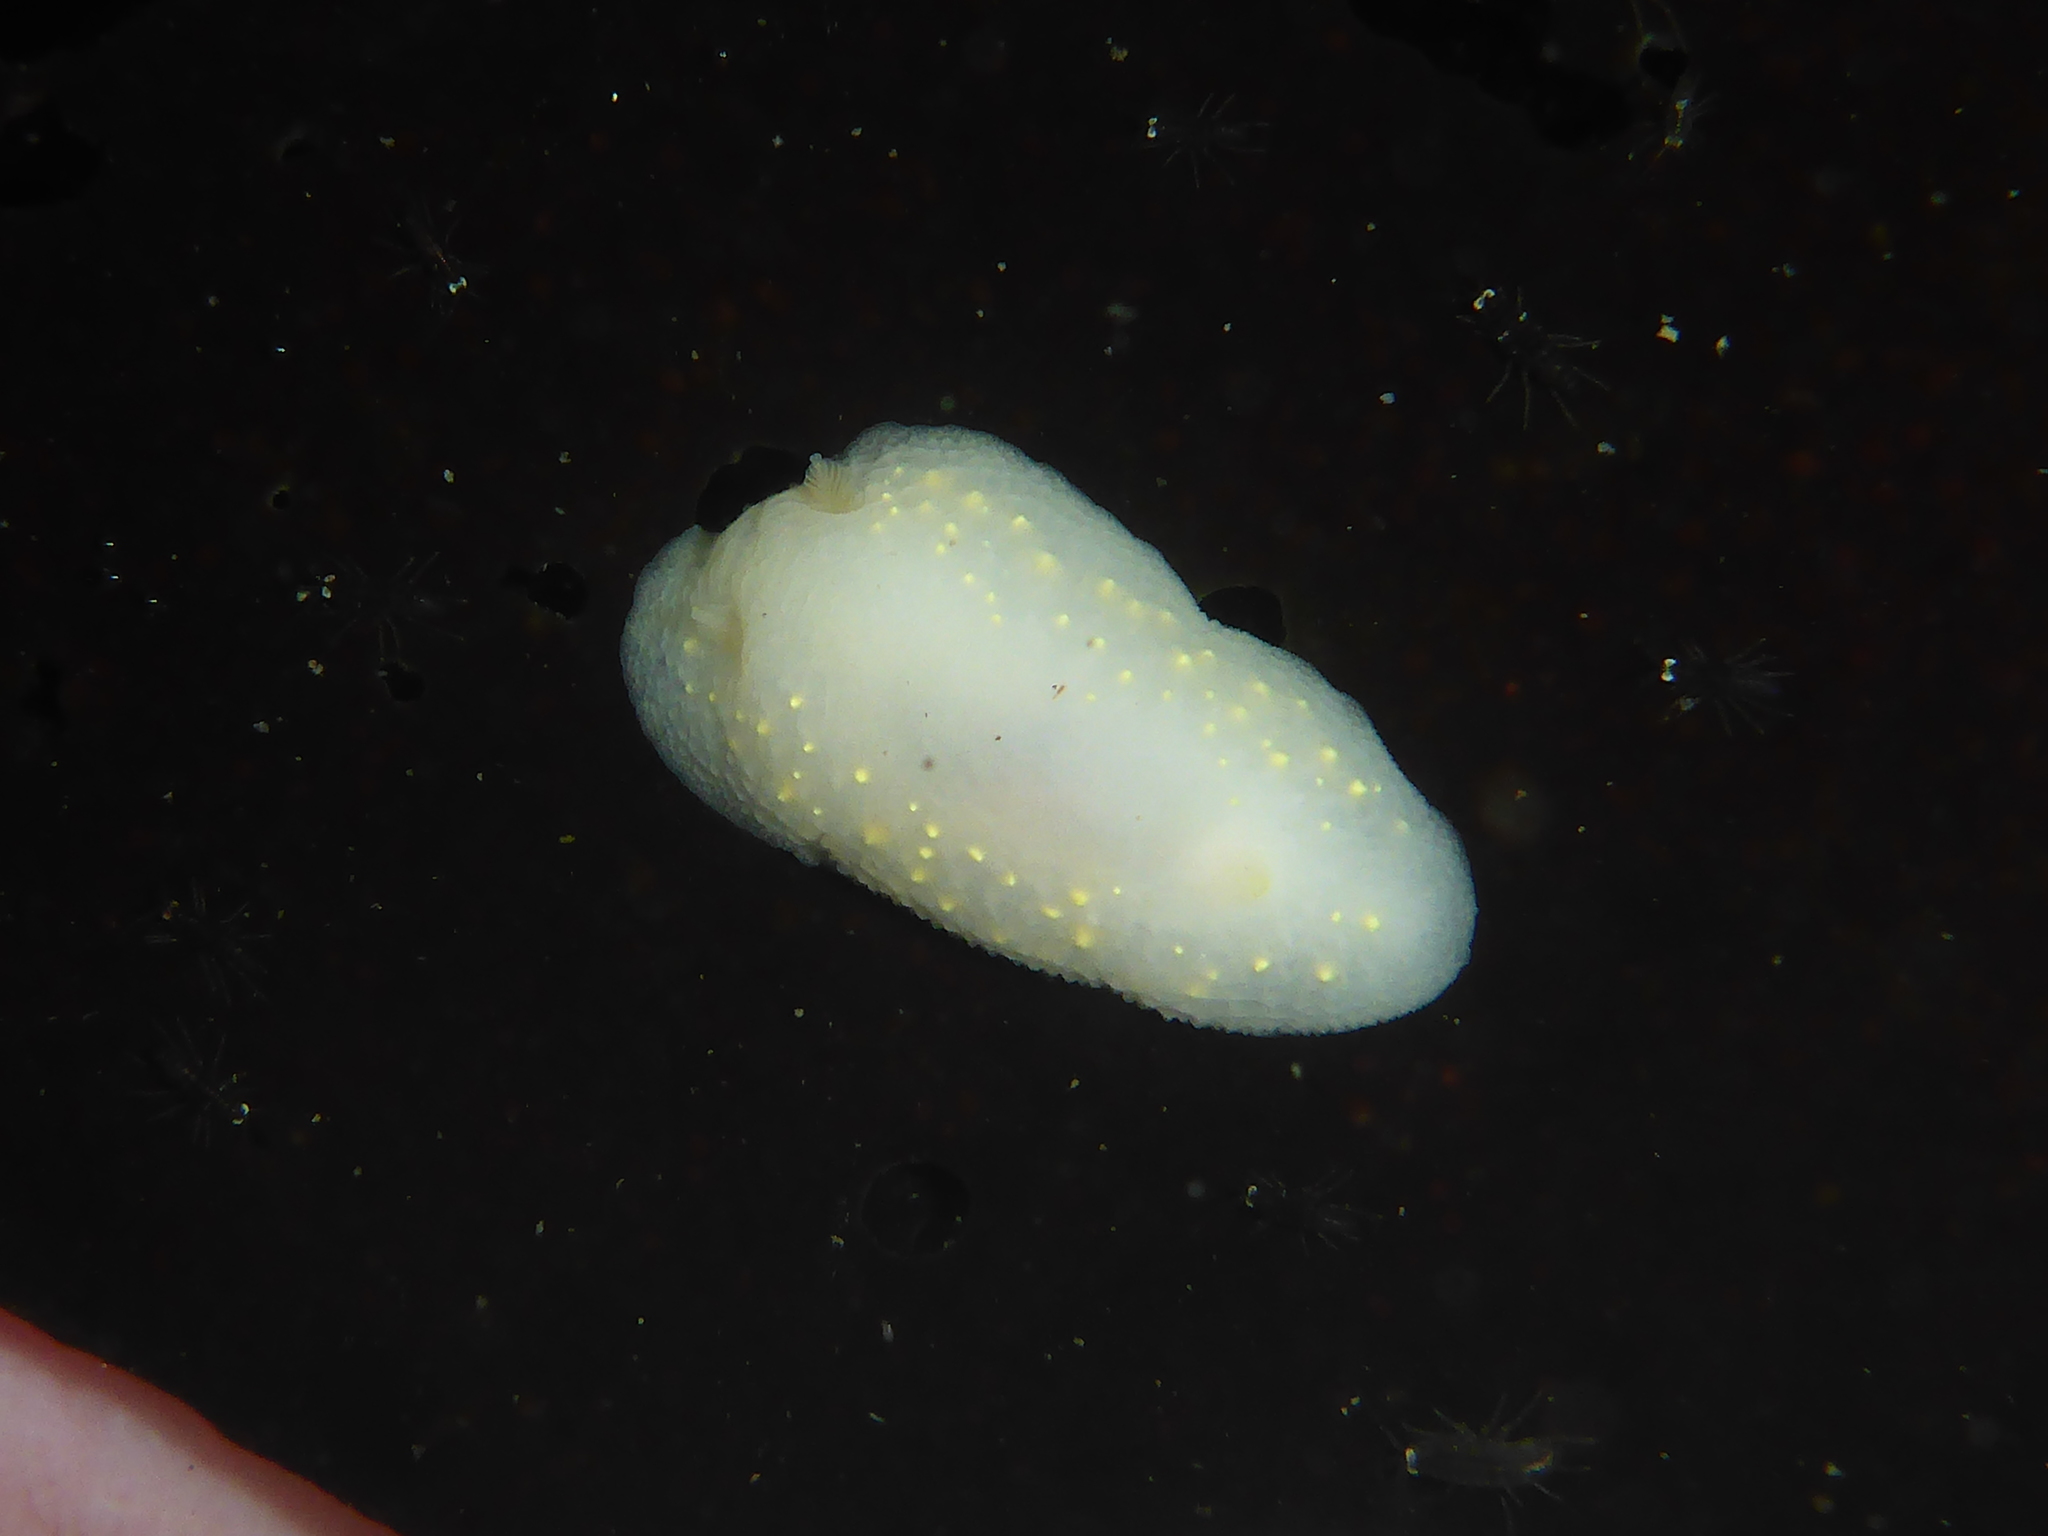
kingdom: Animalia
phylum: Mollusca
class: Gastropoda
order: Nudibranchia
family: Cadlinidae
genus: Cadlina
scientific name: Cadlina modesta
